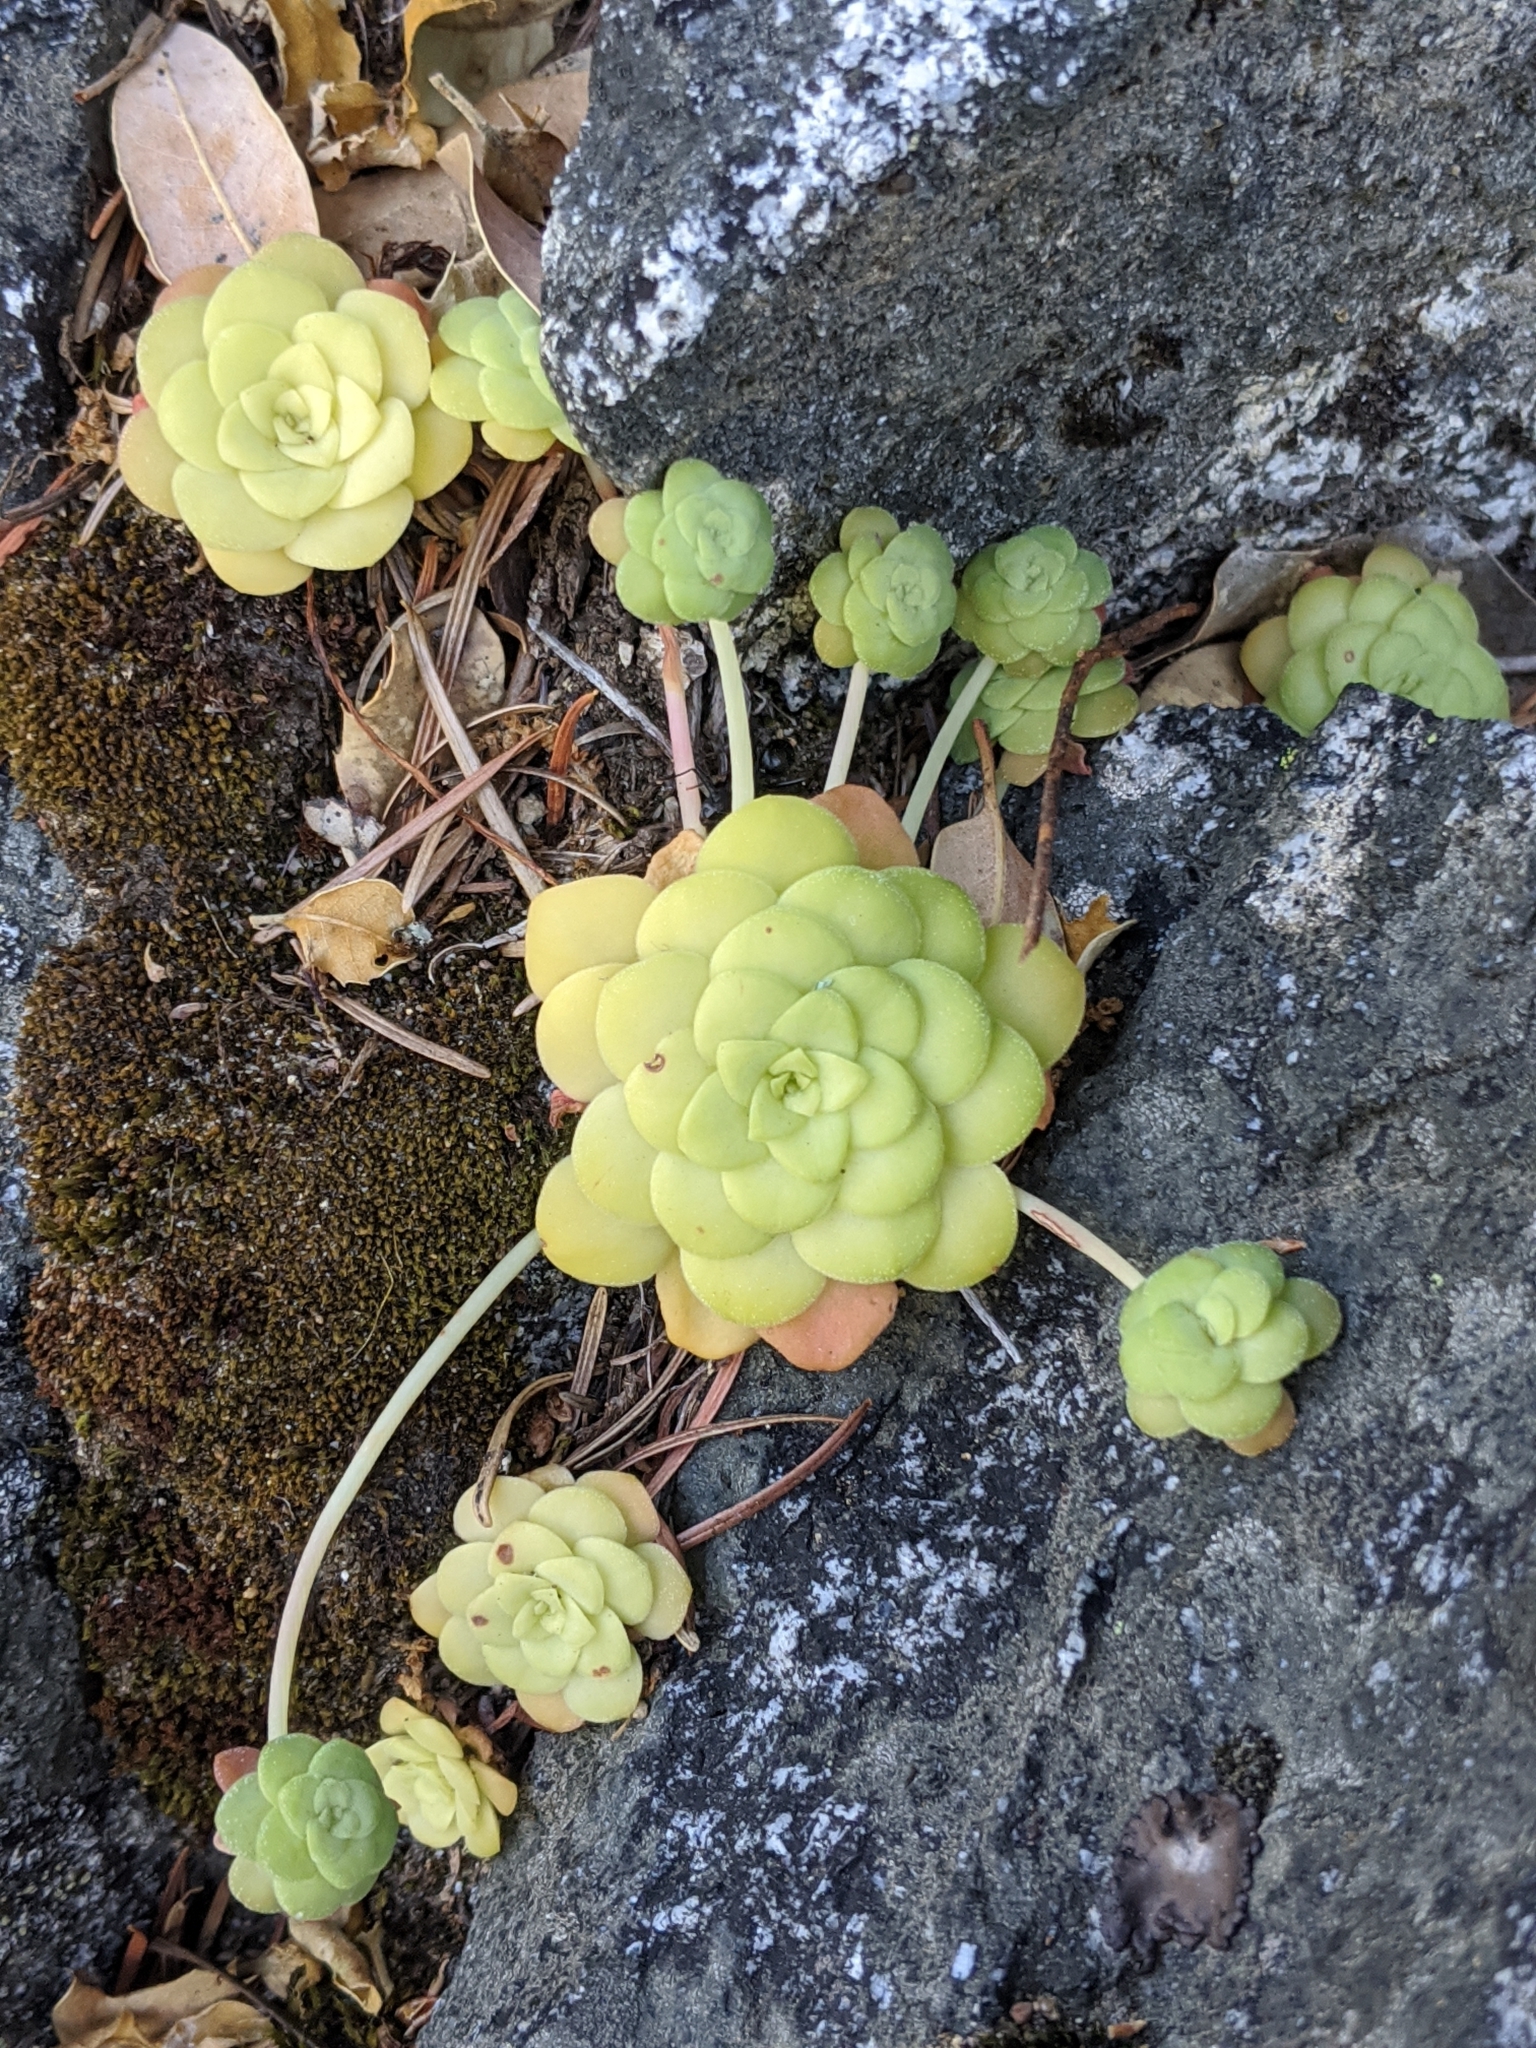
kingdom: Plantae
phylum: Tracheophyta
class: Magnoliopsida
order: Saxifragales
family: Crassulaceae
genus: Sedum
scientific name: Sedum spathulifolium
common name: Colorado stonecrop
